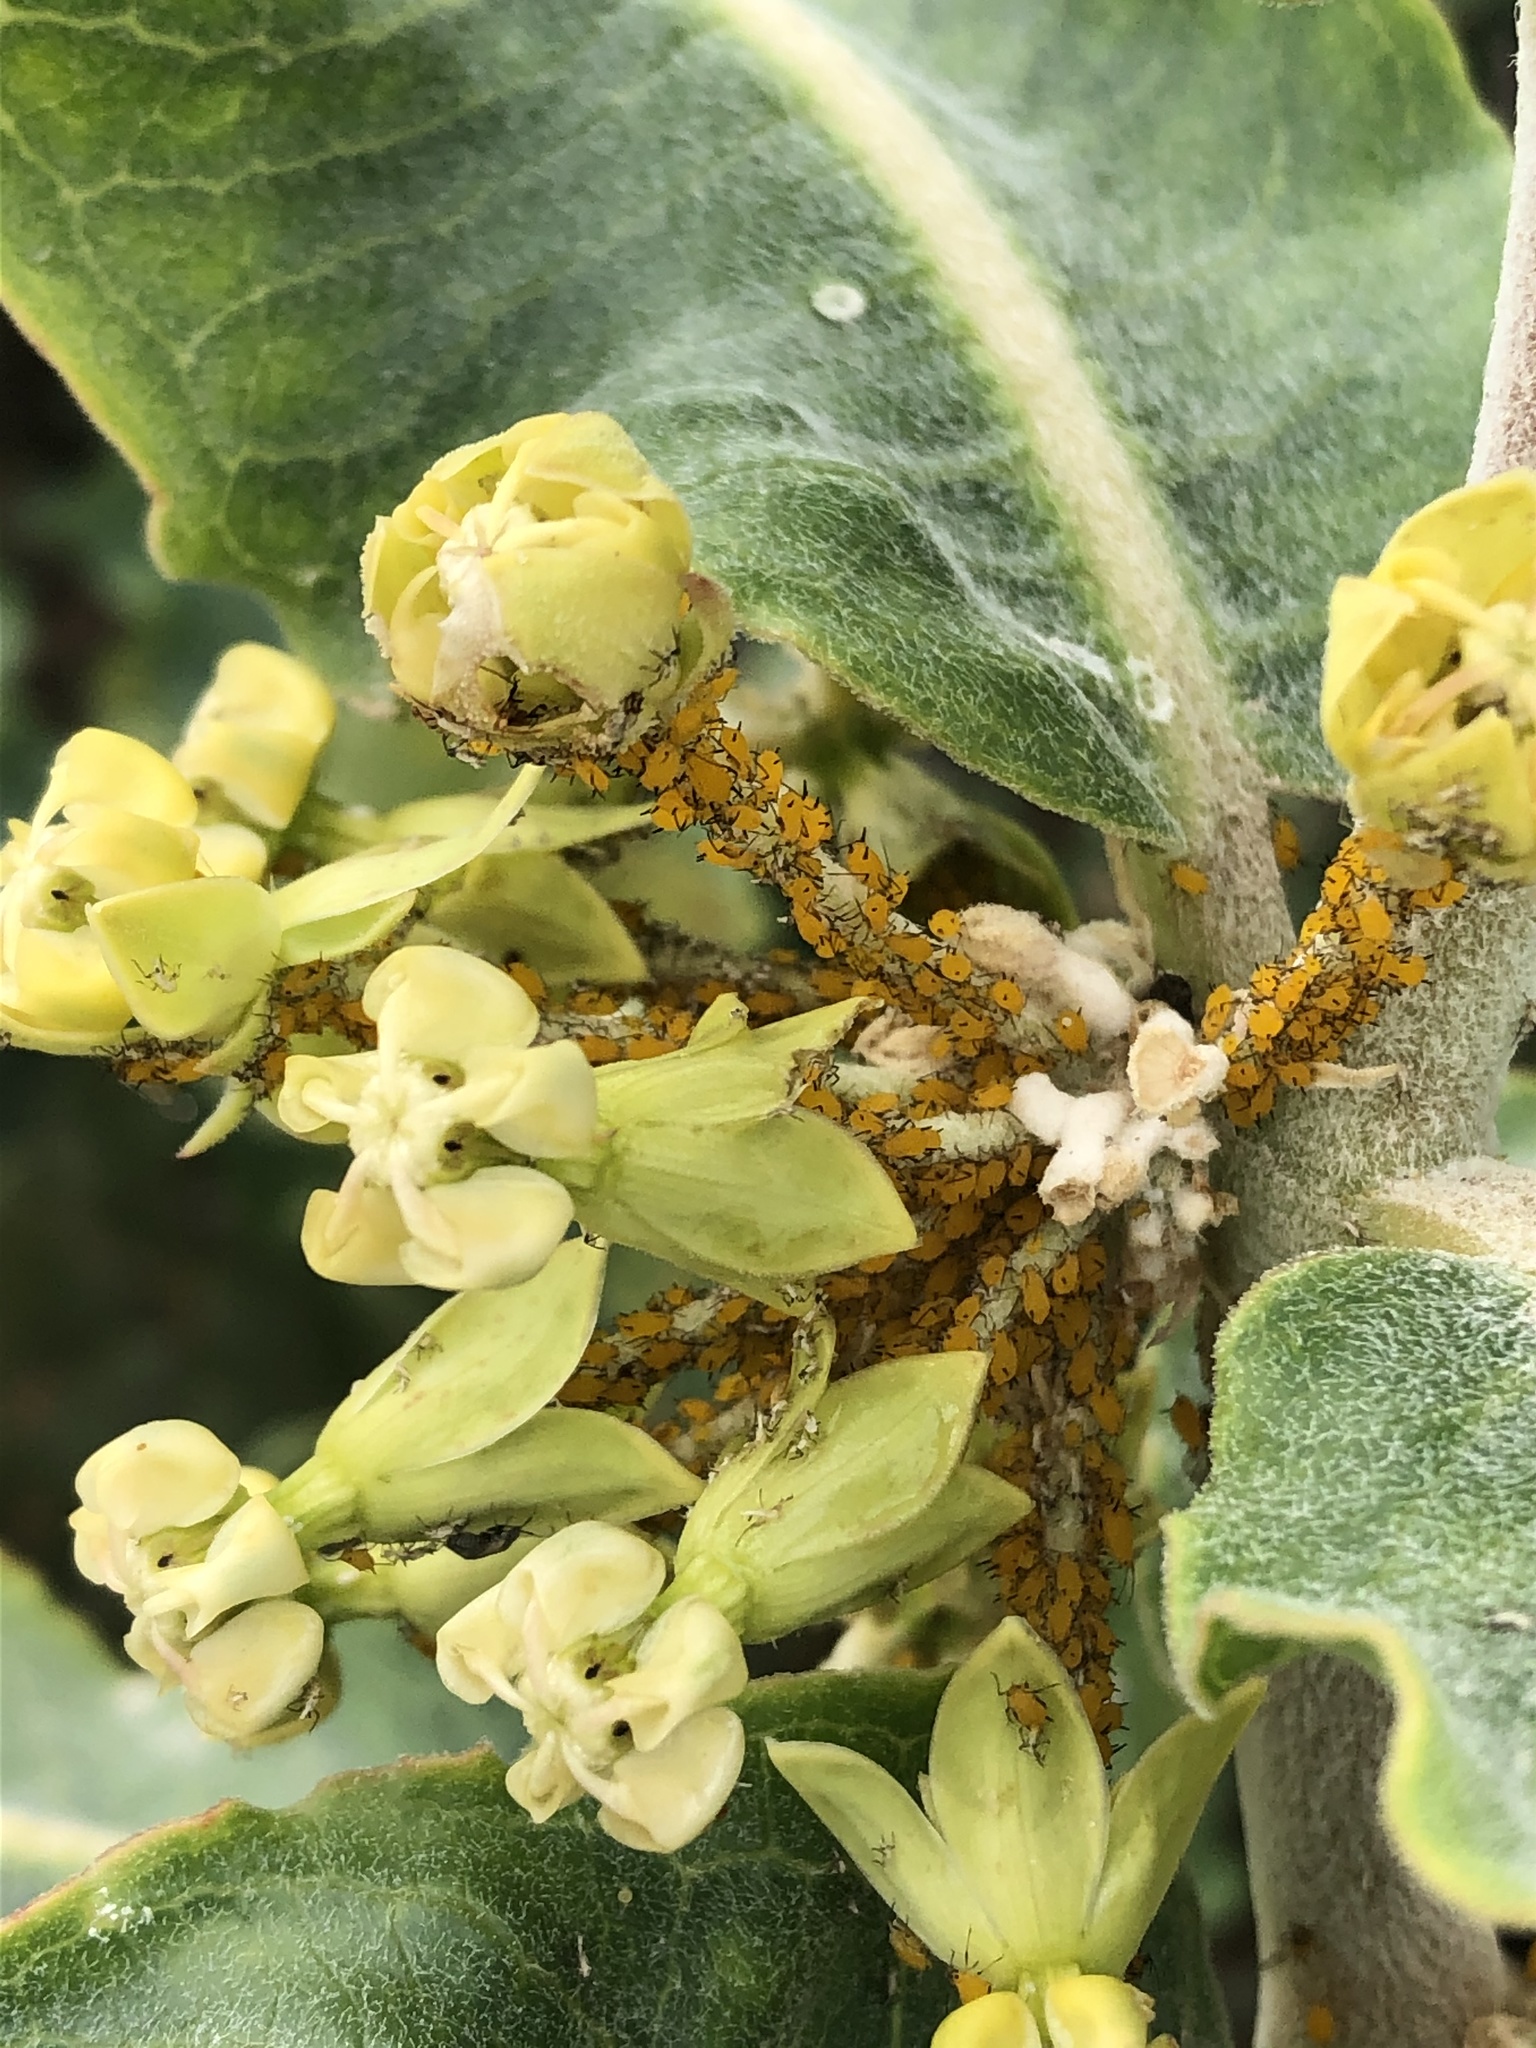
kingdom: Plantae
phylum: Tracheophyta
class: Magnoliopsida
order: Gentianales
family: Apocynaceae
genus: Asclepias
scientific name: Asclepias arenaria
